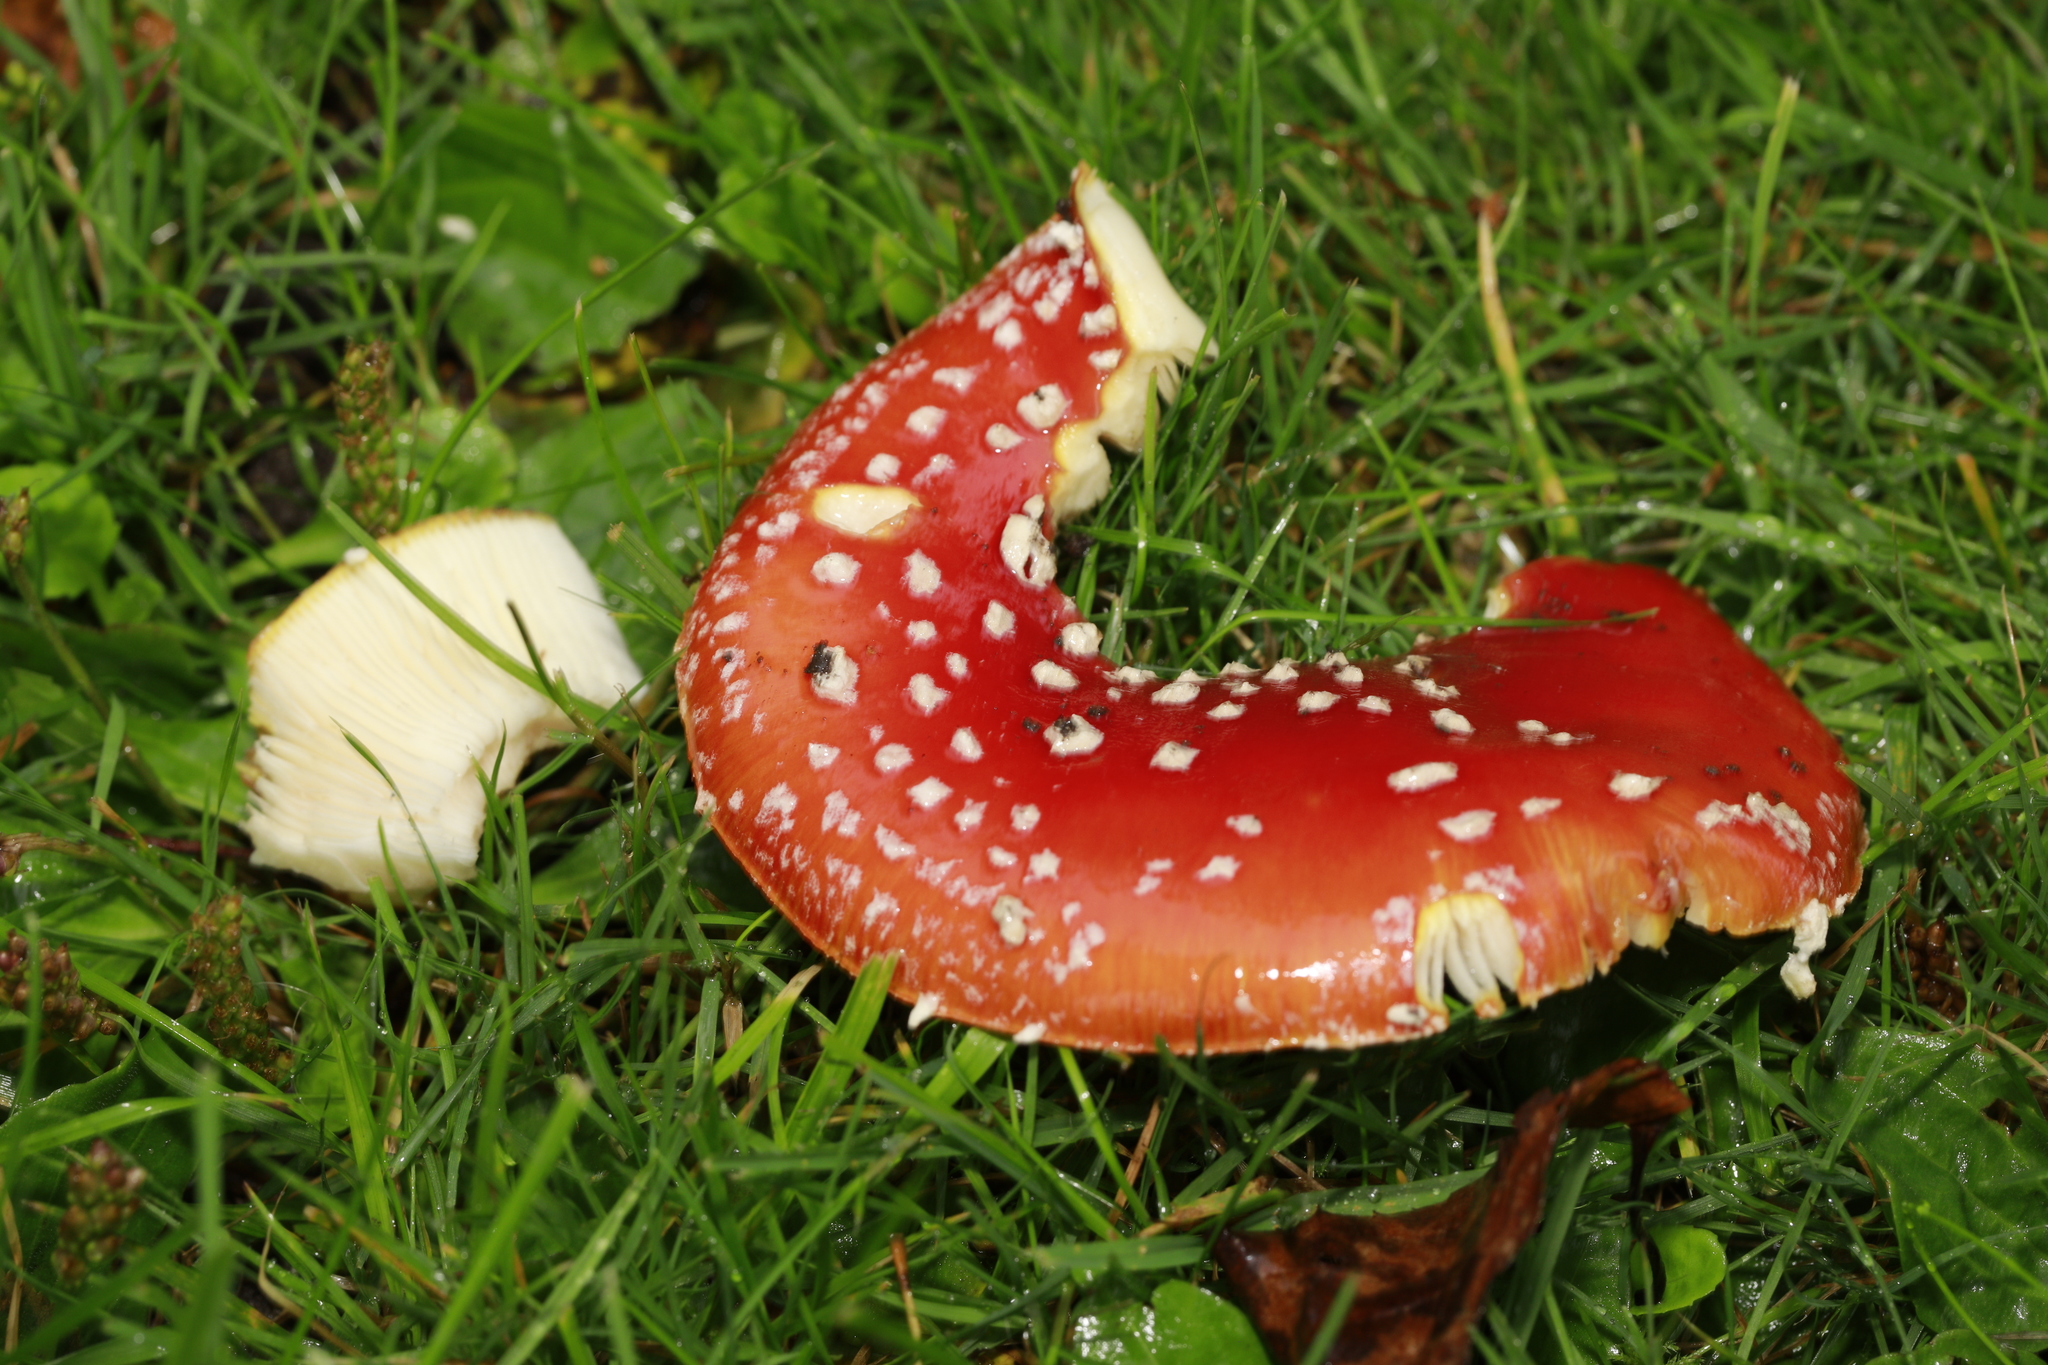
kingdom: Fungi
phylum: Basidiomycota
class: Agaricomycetes
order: Agaricales
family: Amanitaceae
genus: Amanita
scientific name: Amanita muscaria
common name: Fly agaric
